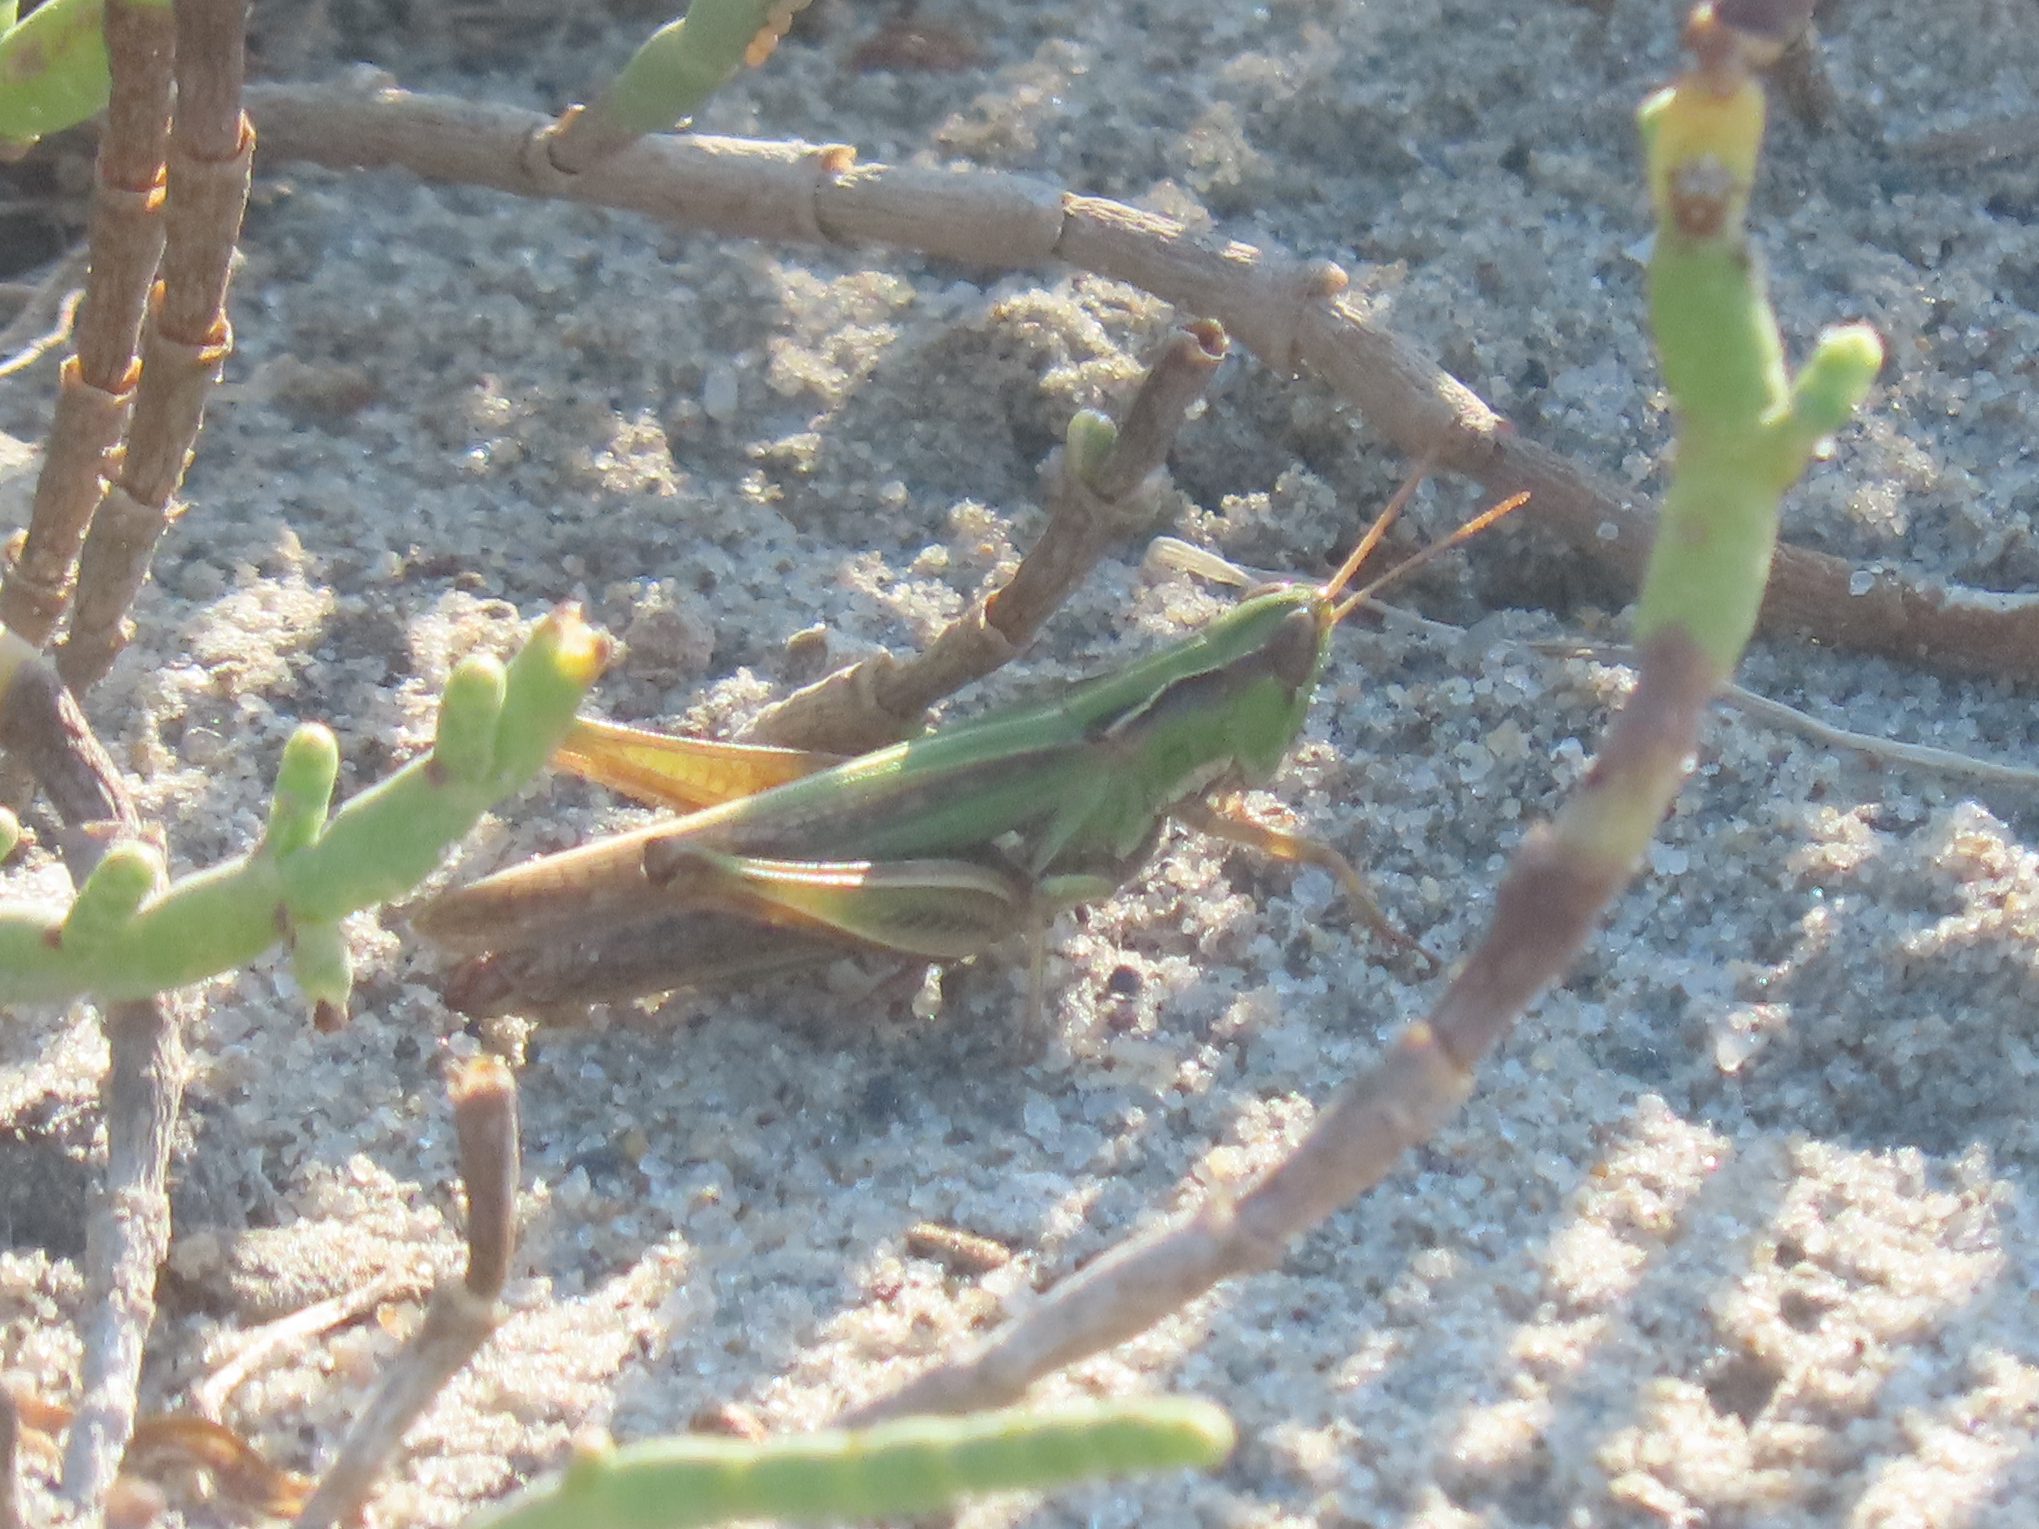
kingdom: Animalia
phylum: Arthropoda
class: Insecta
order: Orthoptera
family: Acrididae
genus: Orphulella
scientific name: Orphulella pelidna
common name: Spotted-wing grasshopper
